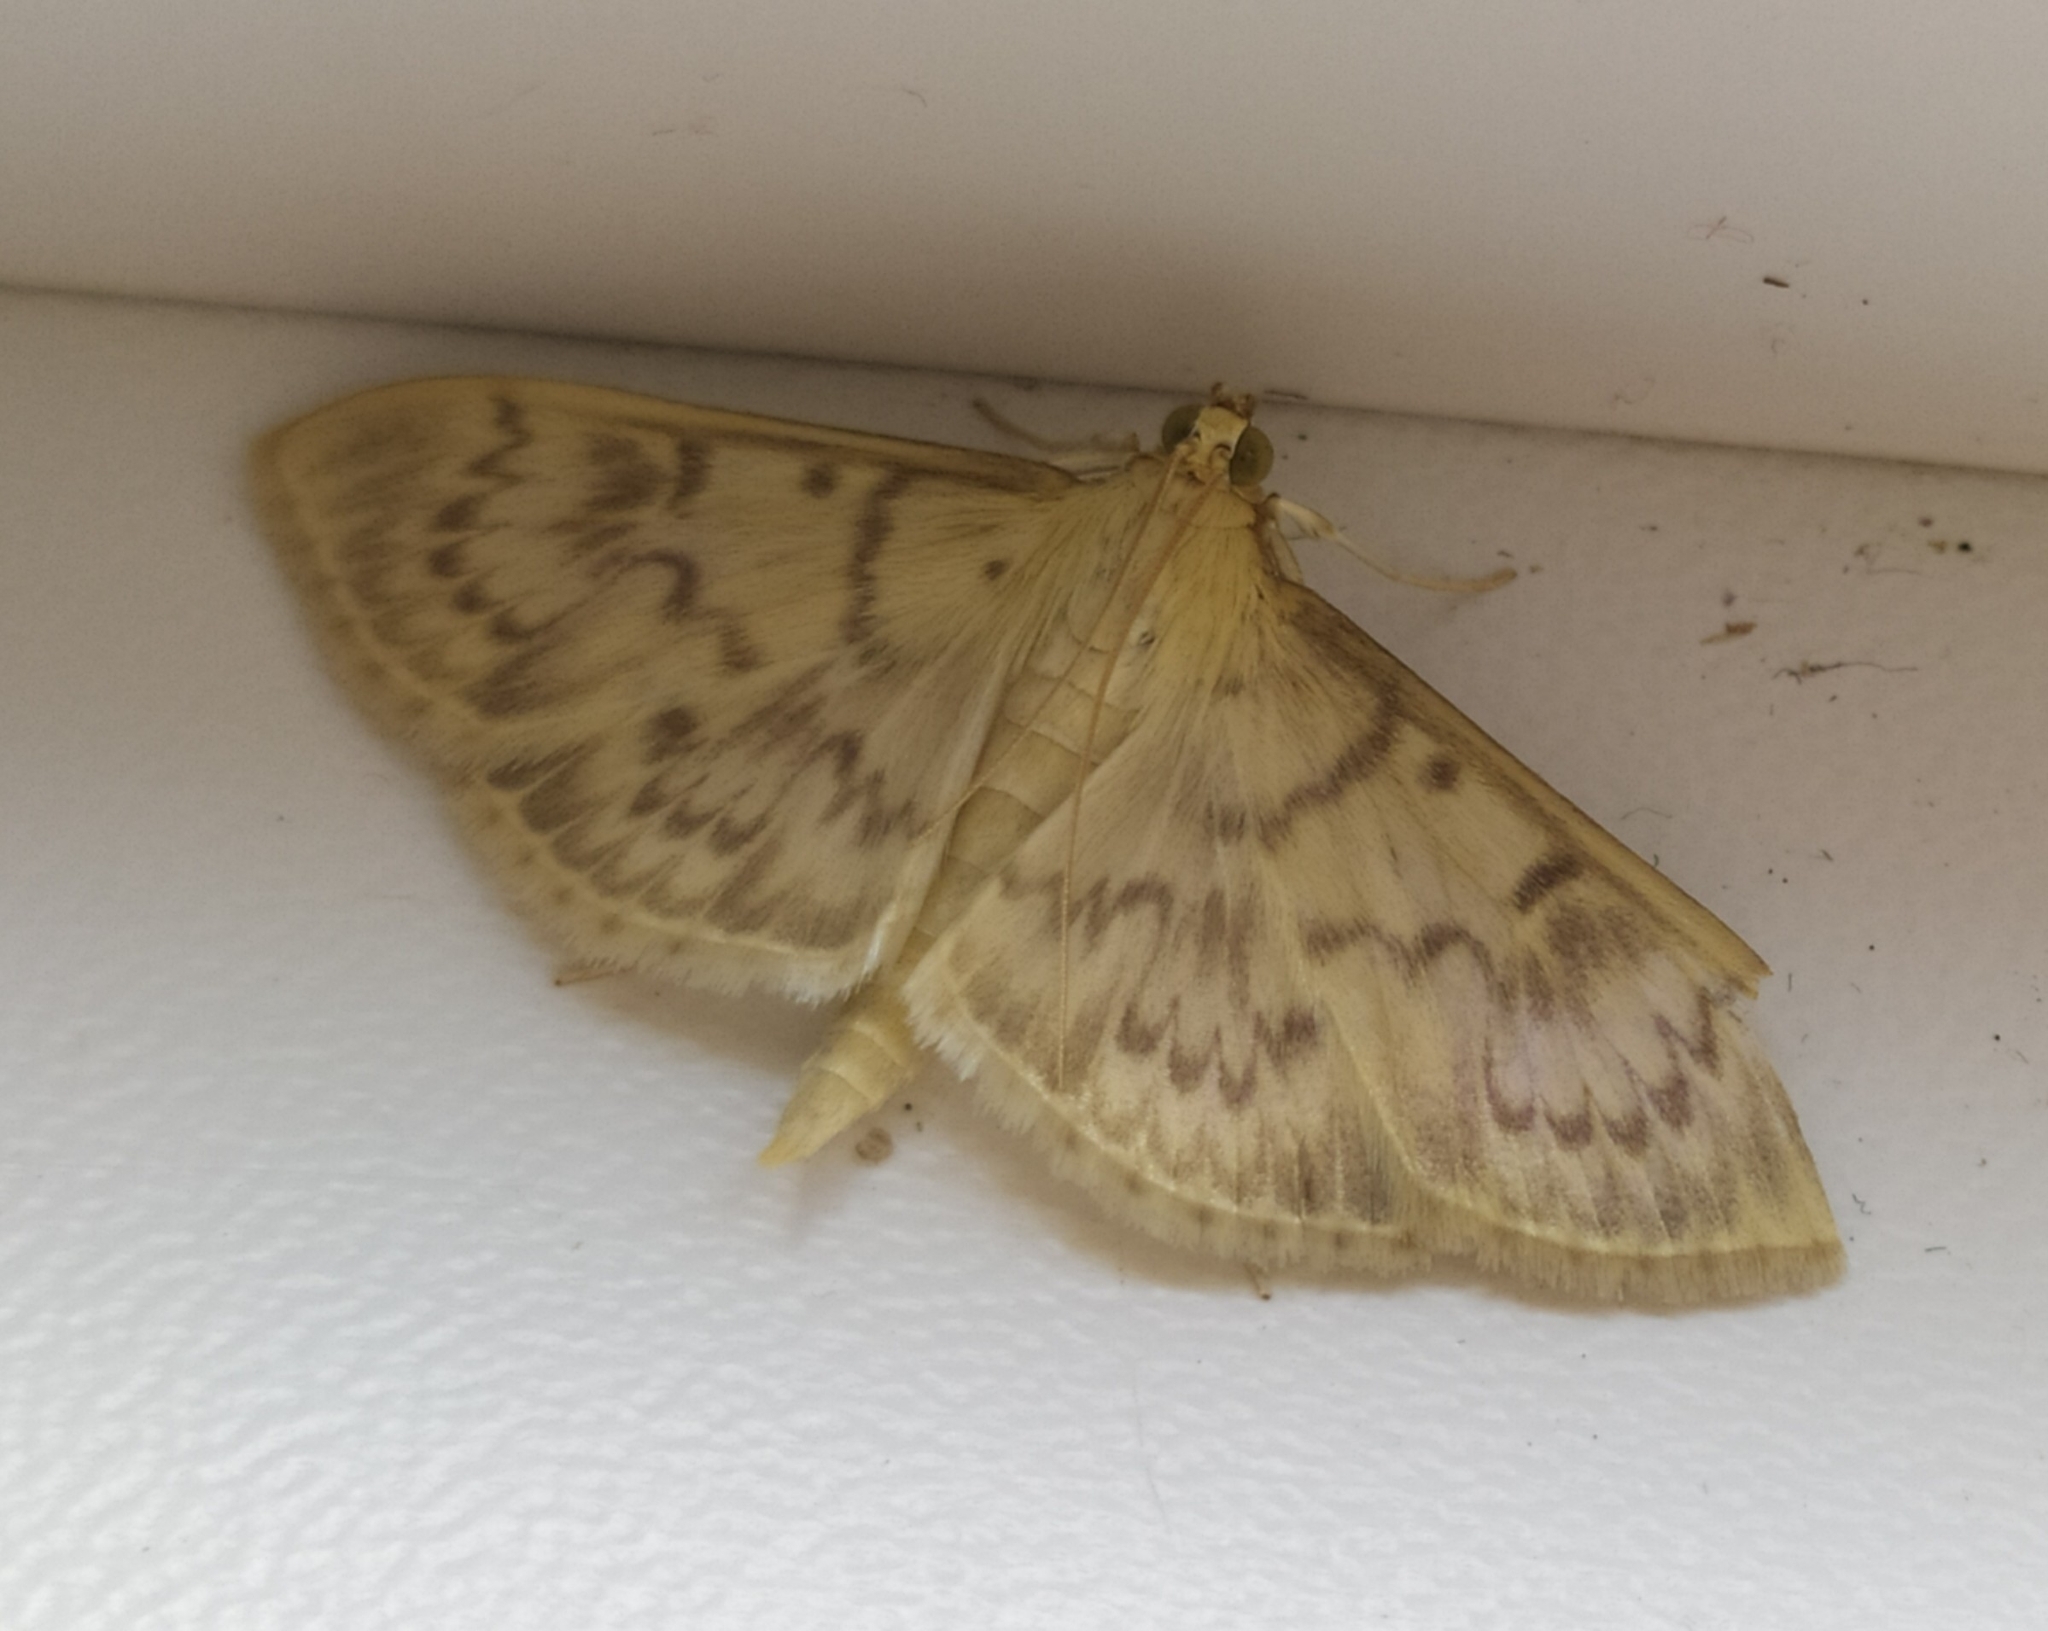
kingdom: Animalia
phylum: Arthropoda
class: Insecta
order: Lepidoptera
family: Crambidae
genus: Patania
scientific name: Patania ruralis
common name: Mother of pearl
